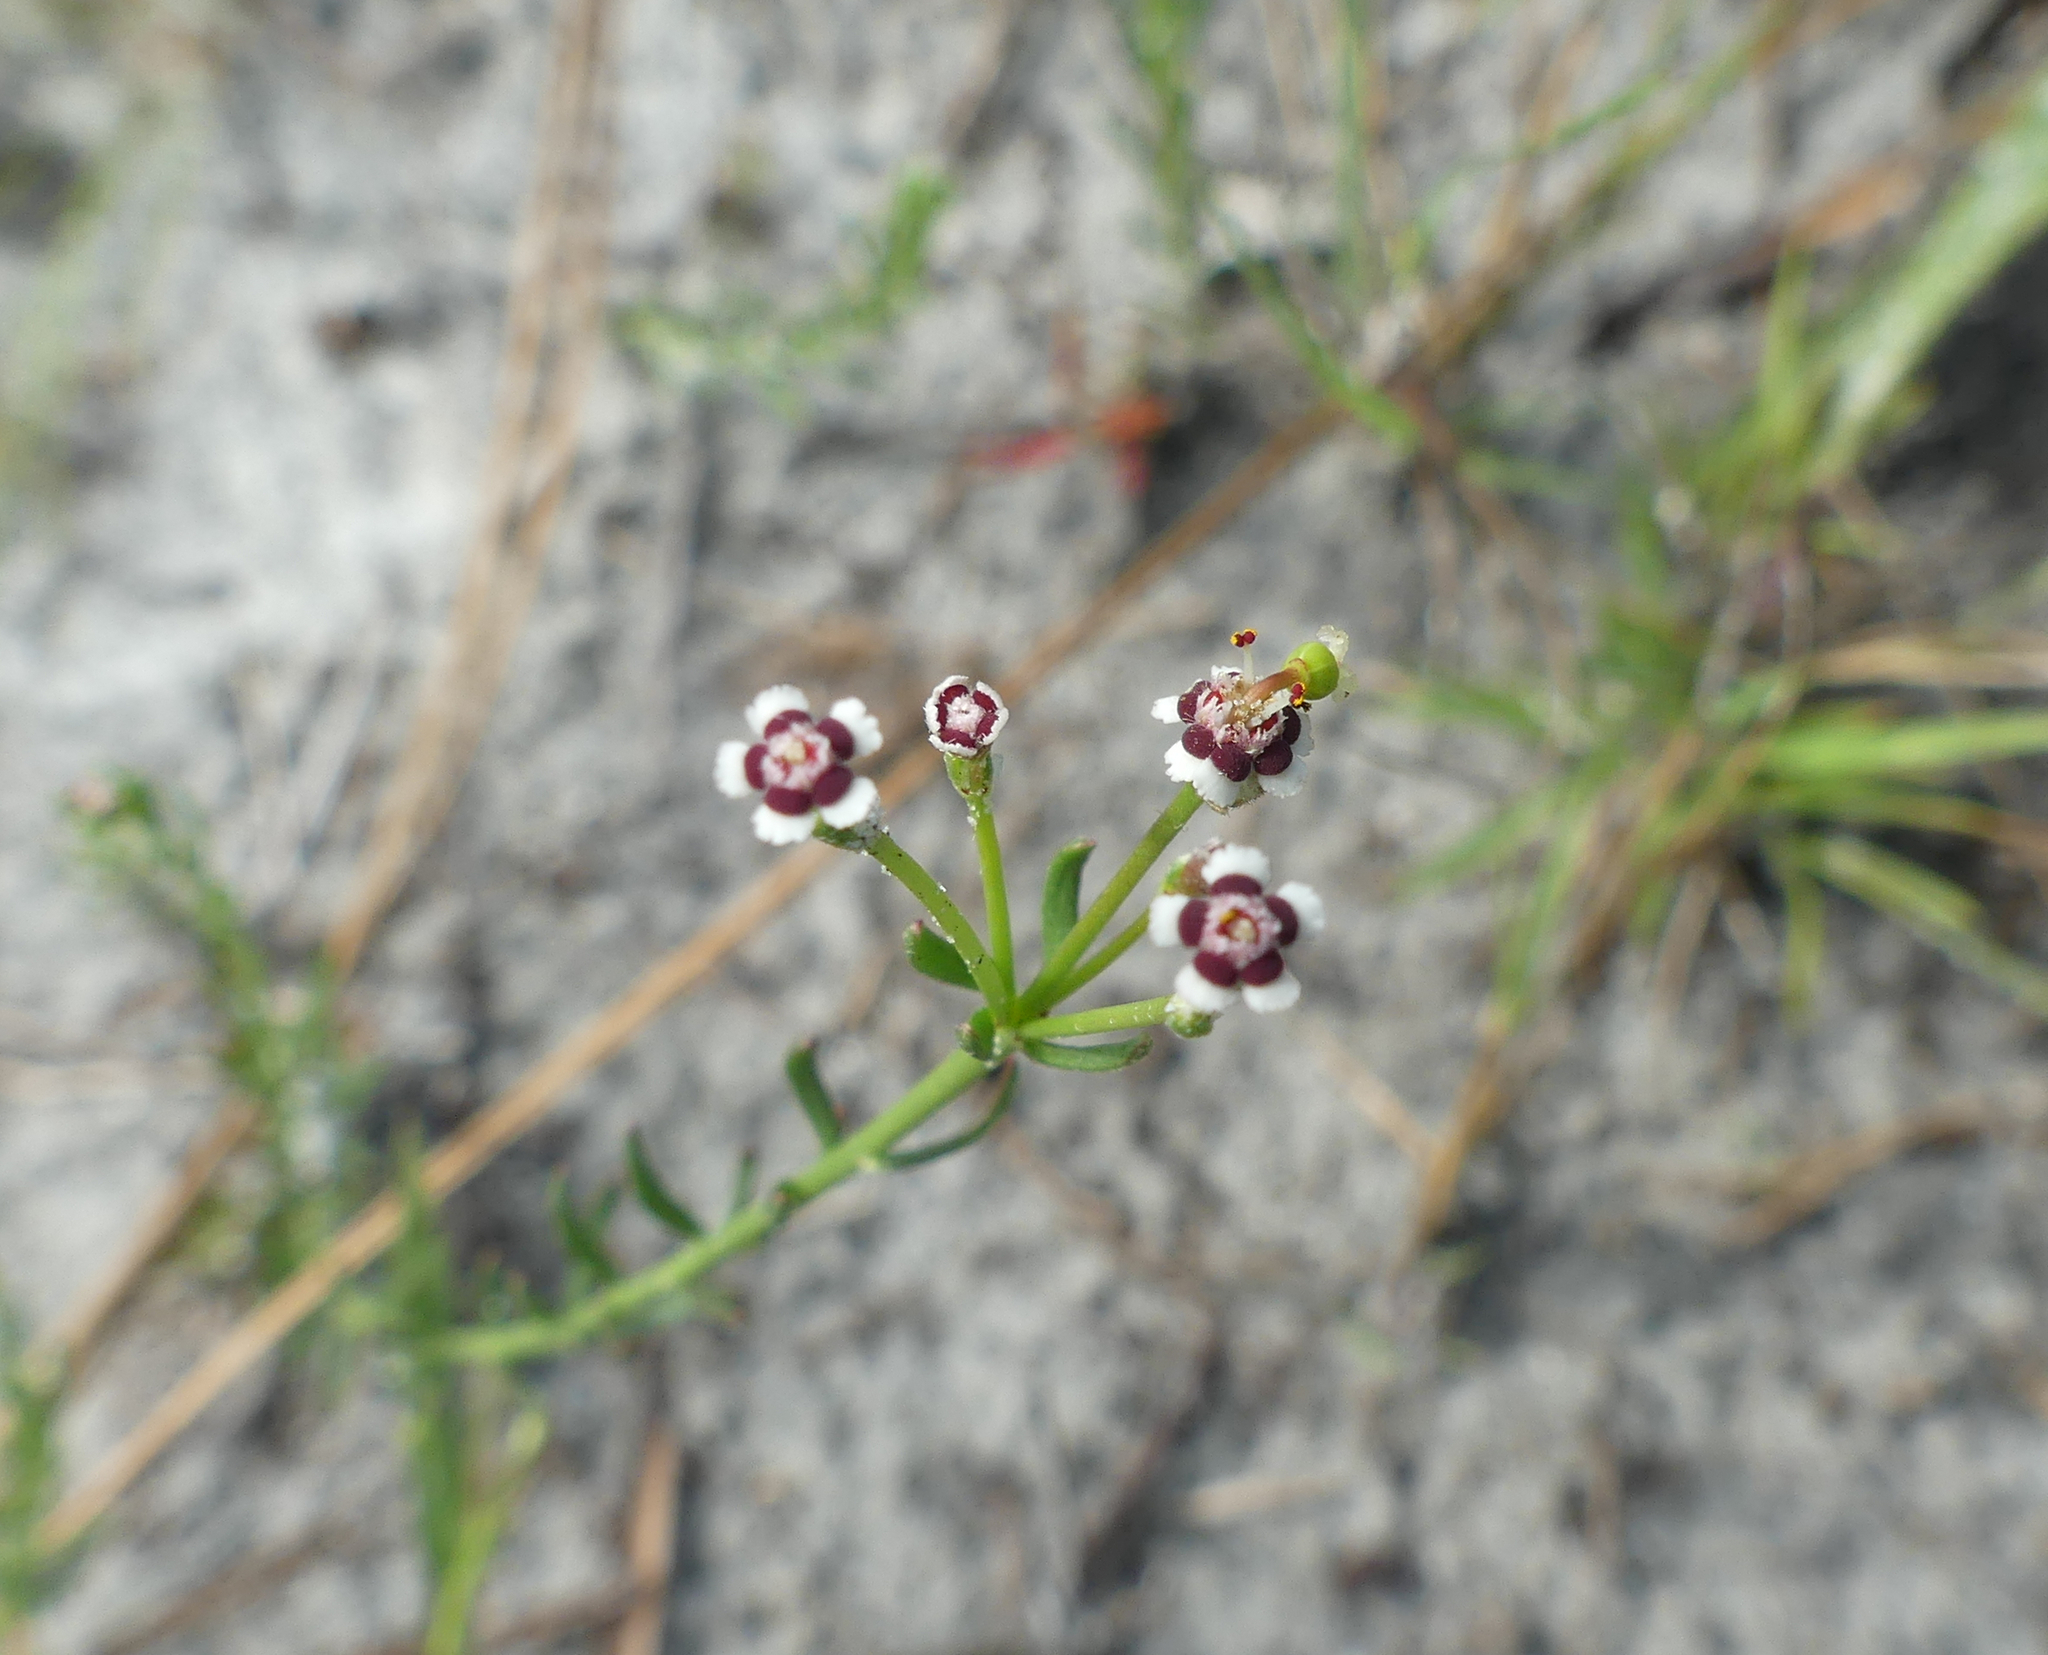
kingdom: Plantae
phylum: Tracheophyta
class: Magnoliopsida
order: Malpighiales
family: Euphorbiaceae
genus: Euphorbia
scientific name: Euphorbia polyphylla
